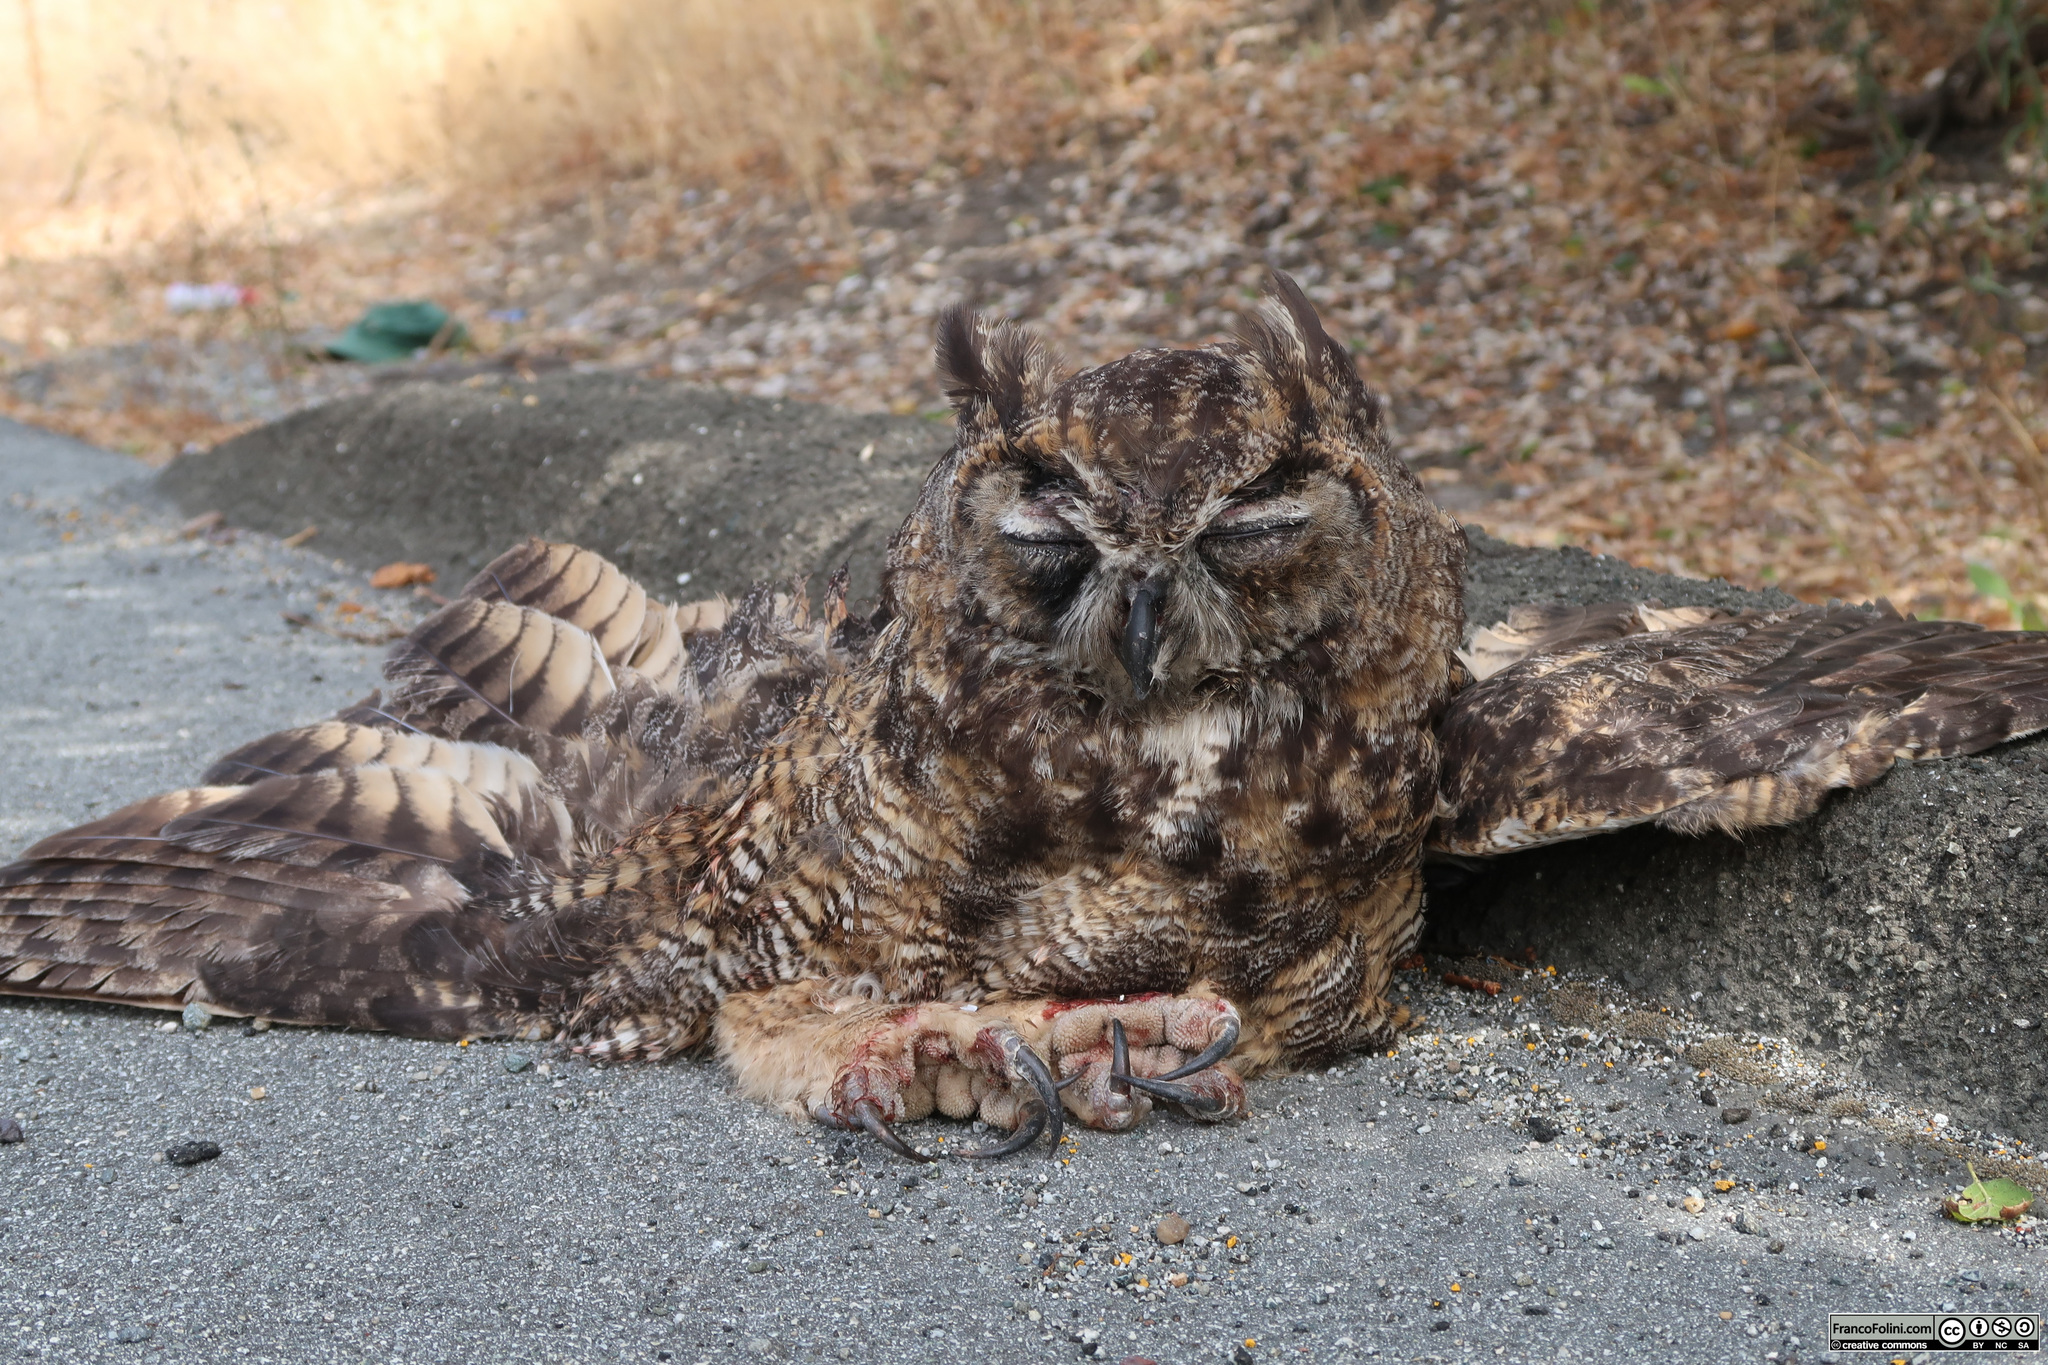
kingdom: Animalia
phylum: Chordata
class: Aves
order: Strigiformes
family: Strigidae
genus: Bubo
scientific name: Bubo virginianus
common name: Great horned owl
